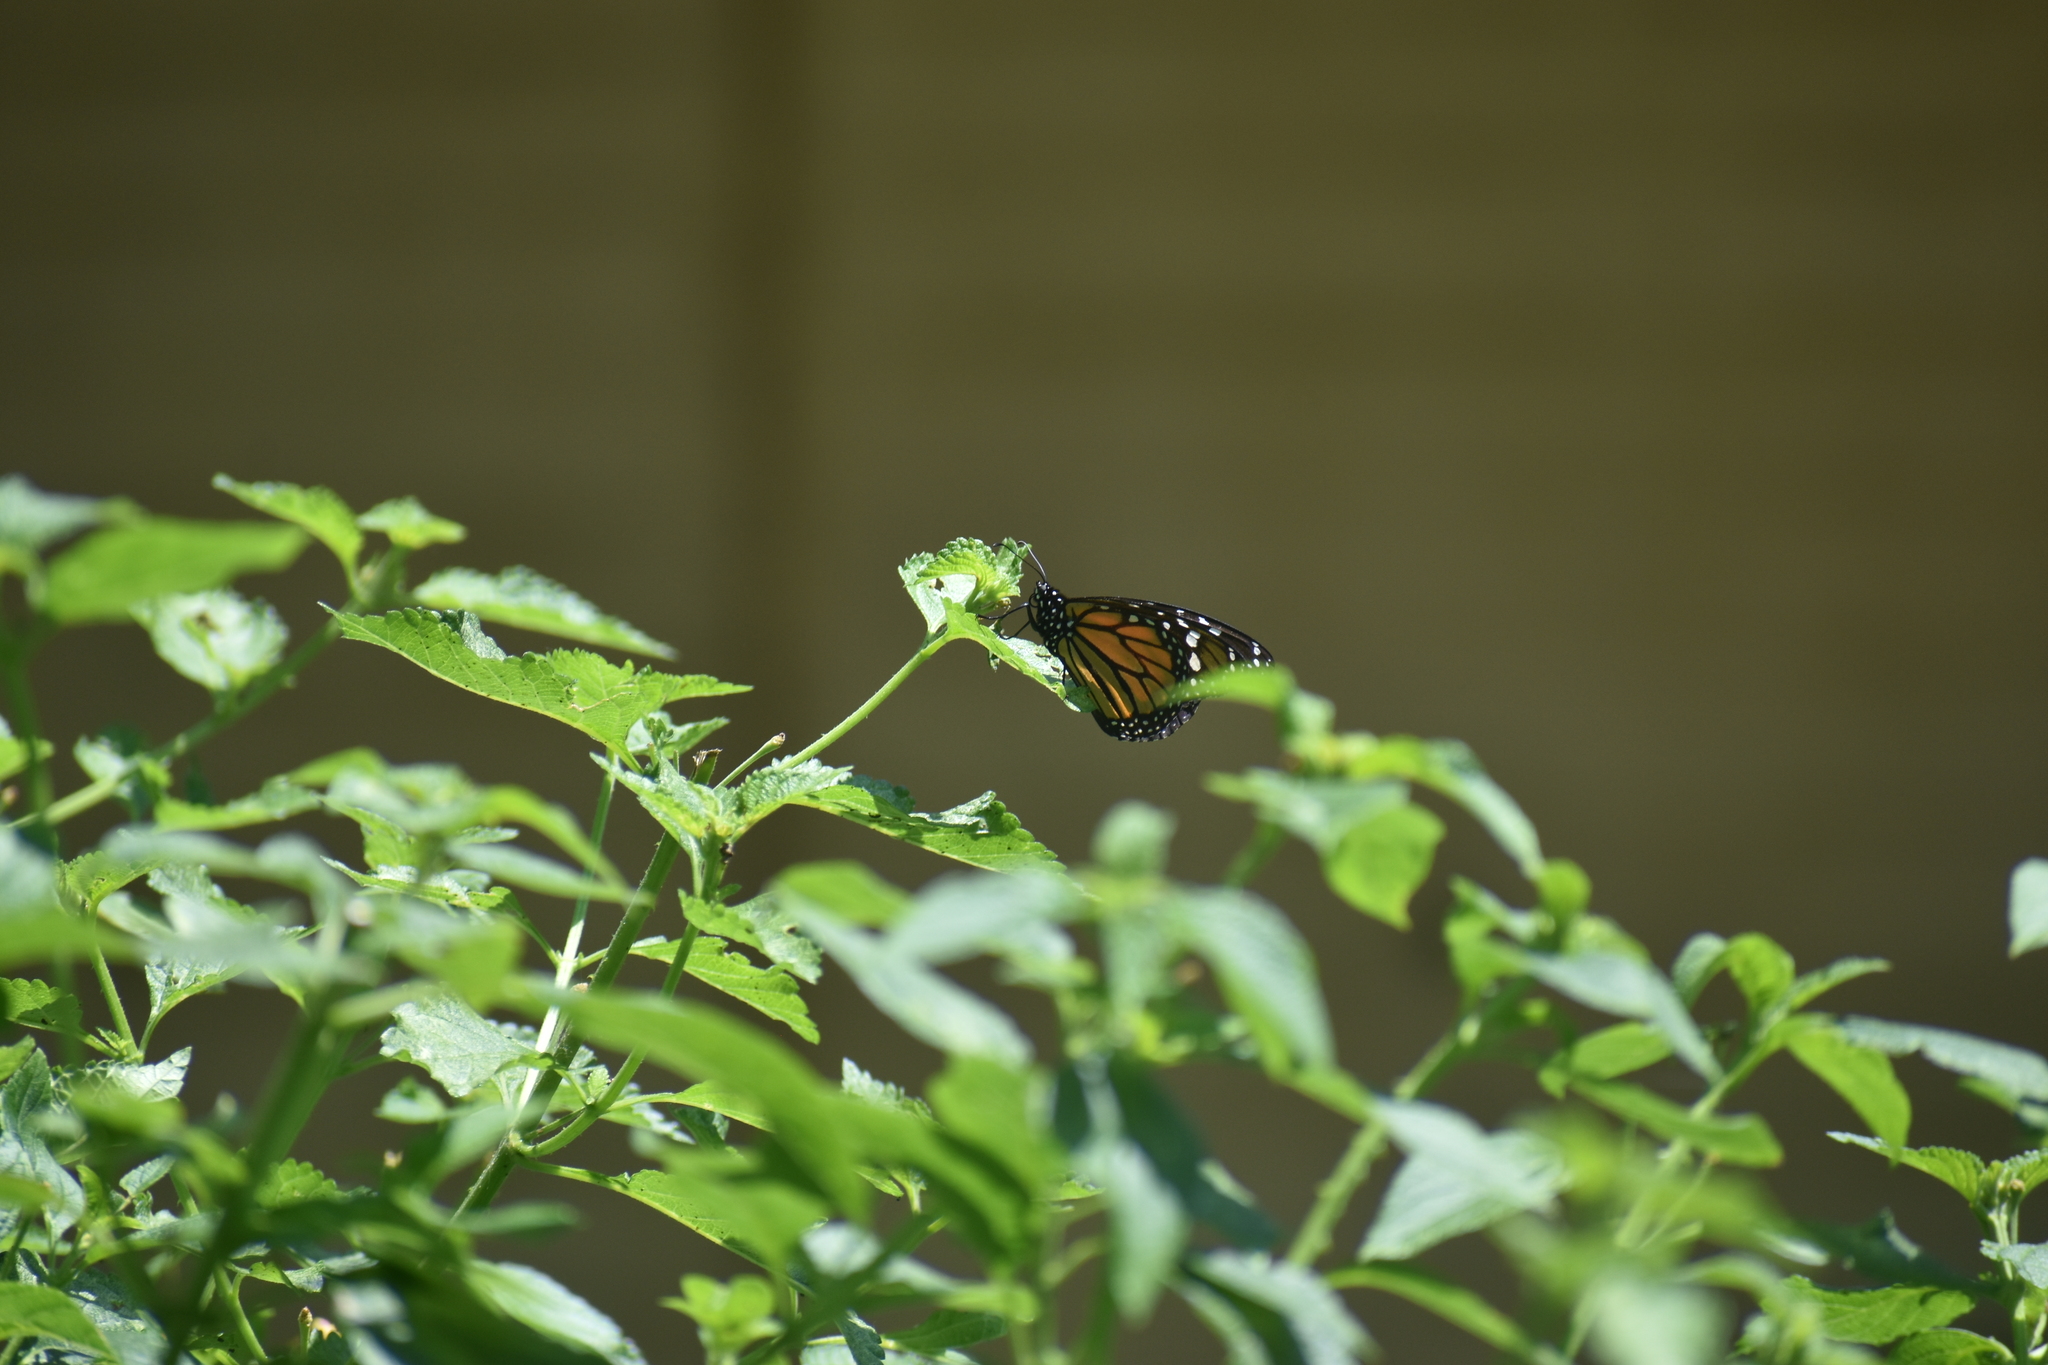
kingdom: Animalia
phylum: Arthropoda
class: Insecta
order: Lepidoptera
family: Nymphalidae
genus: Danaus
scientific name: Danaus plexippus
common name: Monarch
